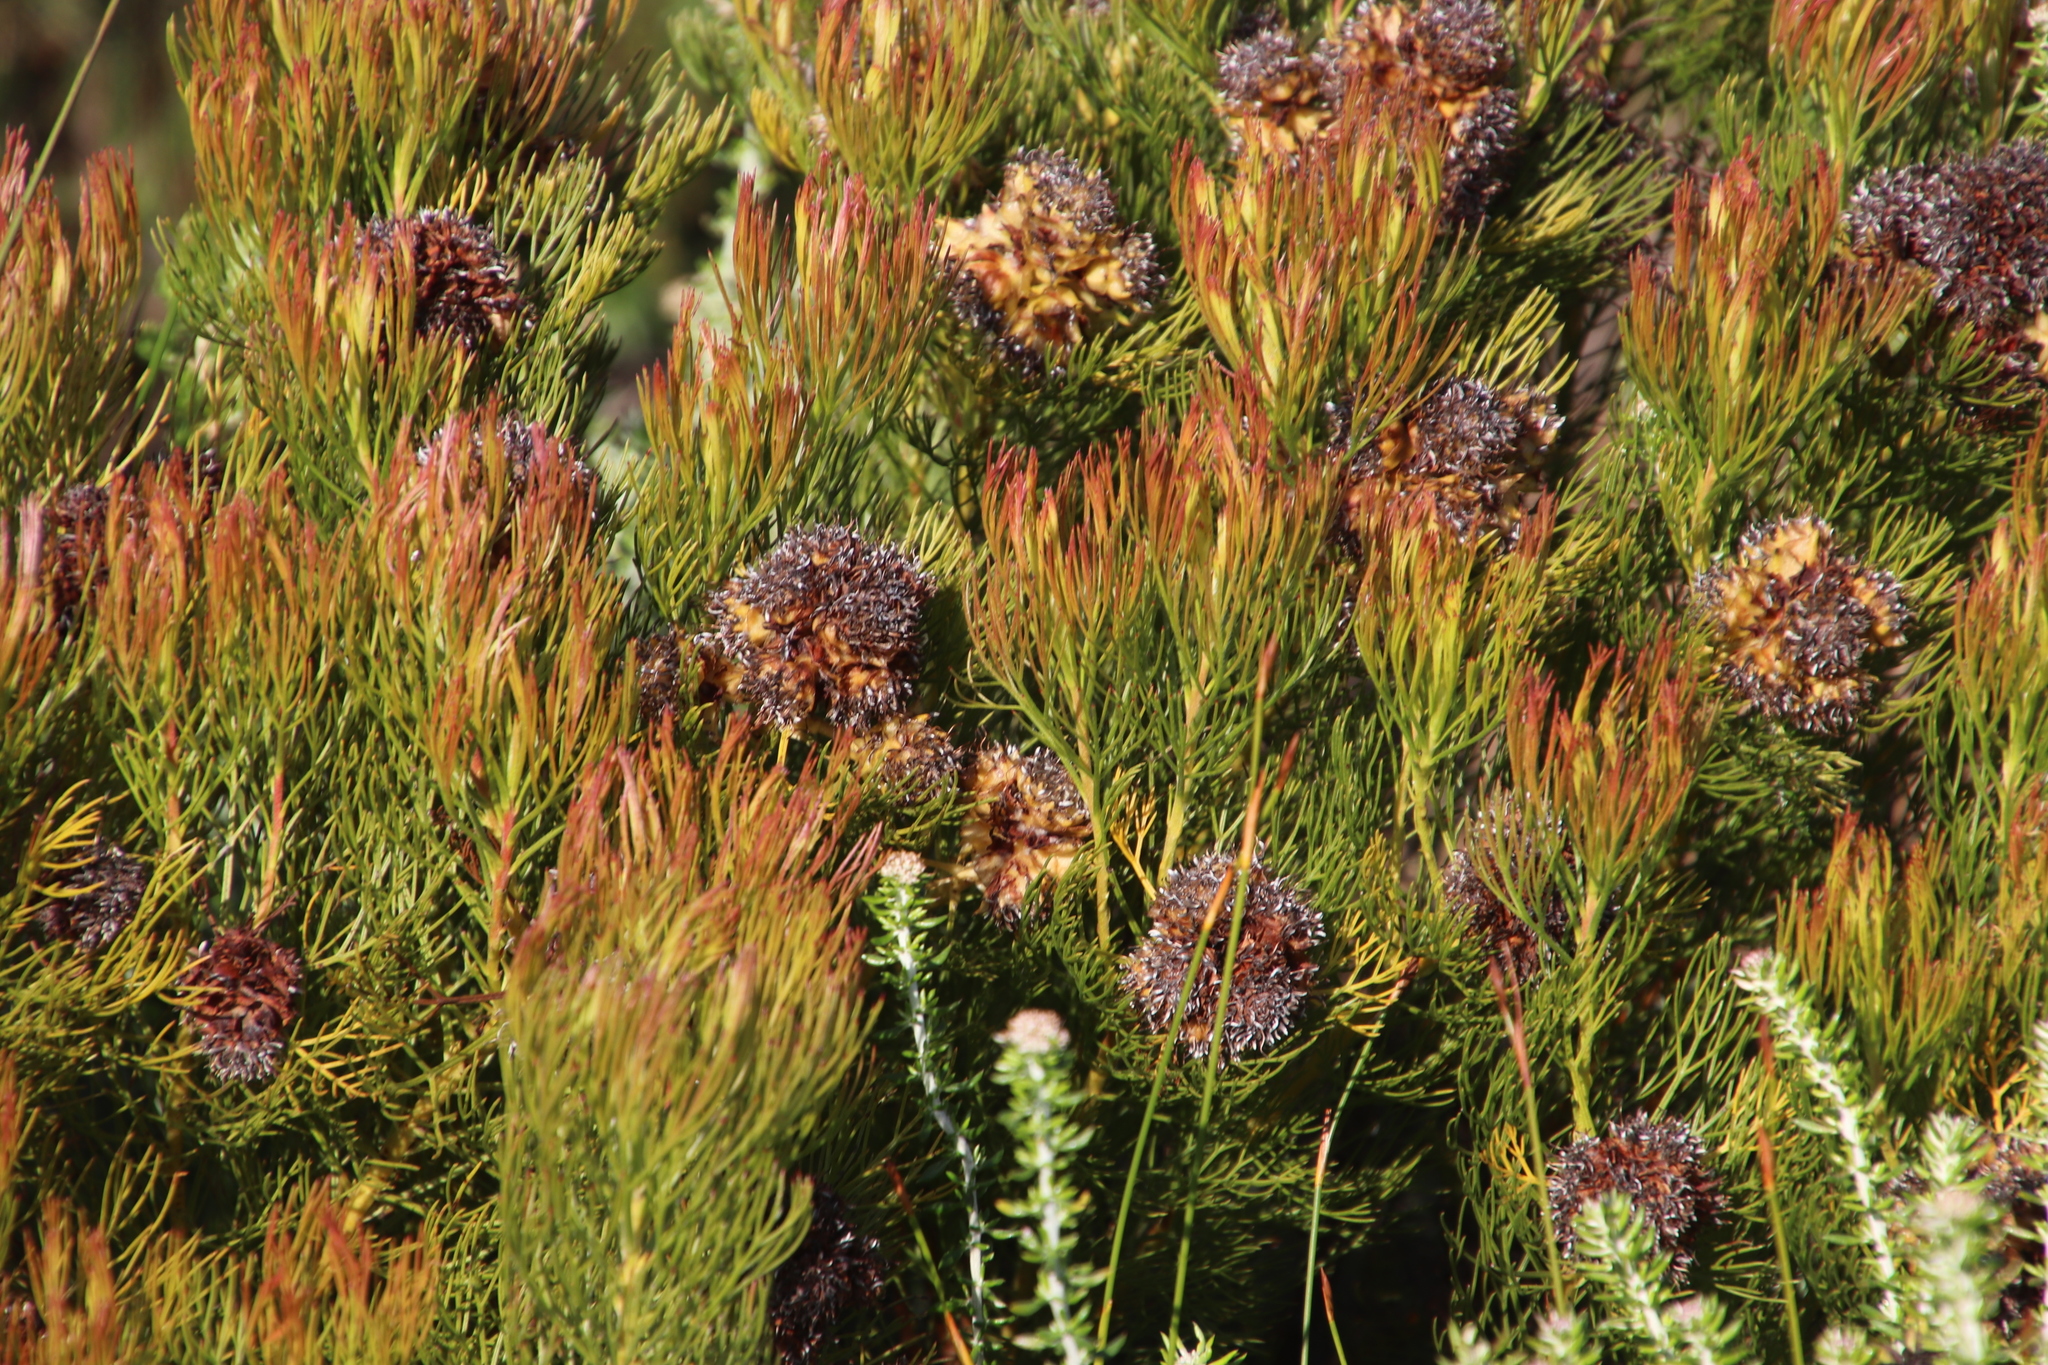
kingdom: Plantae
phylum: Tracheophyta
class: Magnoliopsida
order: Proteales
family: Proteaceae
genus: Serruria
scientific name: Serruria glomerata
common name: Cluster spiderhead
